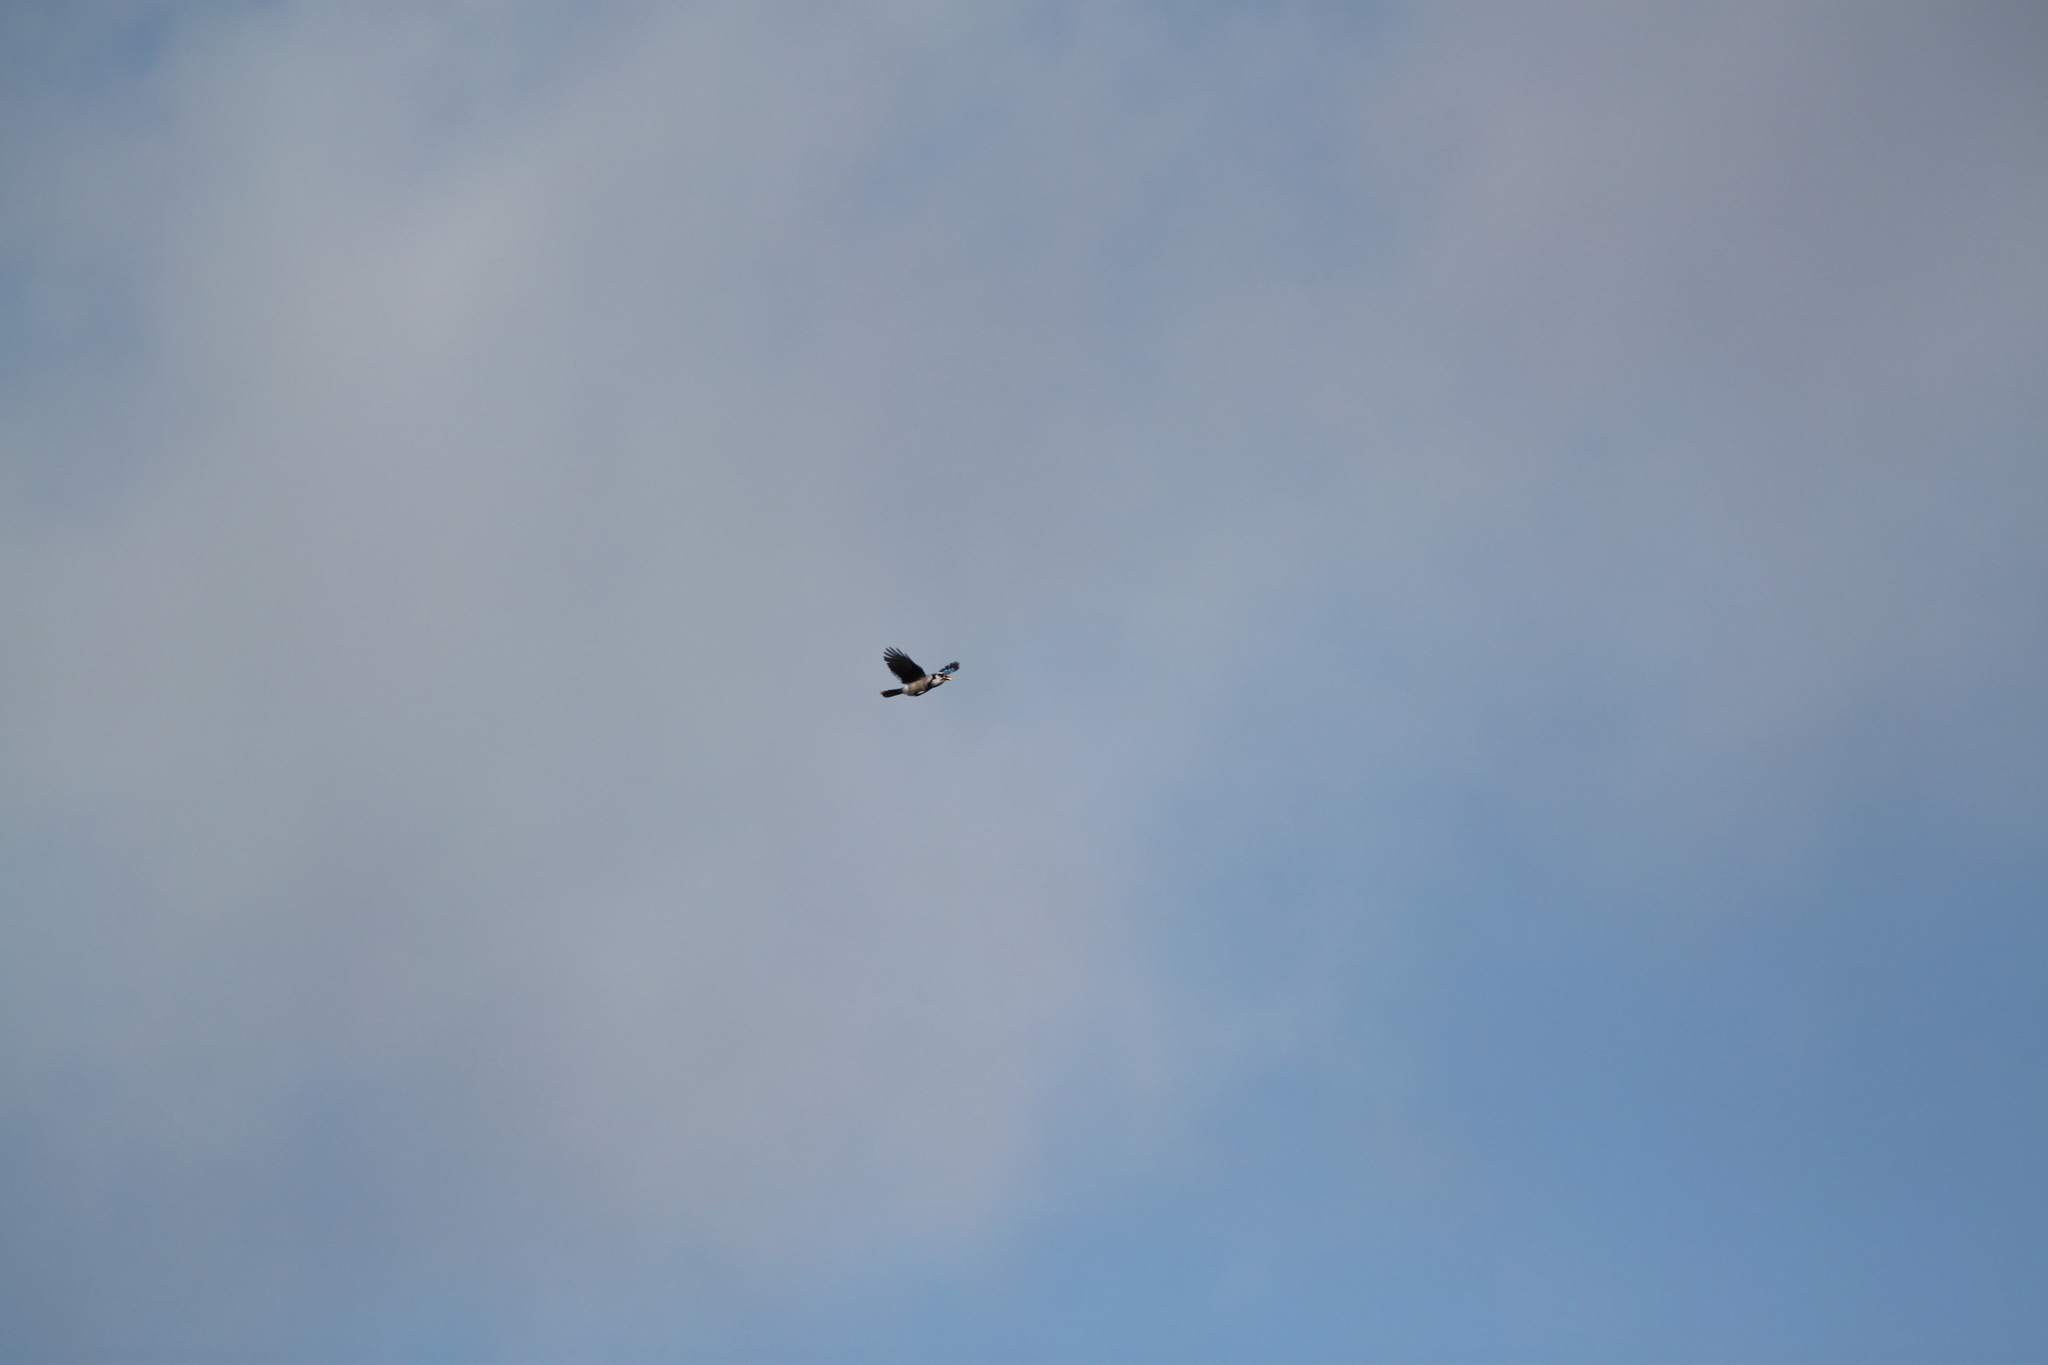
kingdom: Animalia
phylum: Chordata
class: Aves
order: Passeriformes
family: Corvidae
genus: Cyanocitta
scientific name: Cyanocitta cristata
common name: Blue jay
